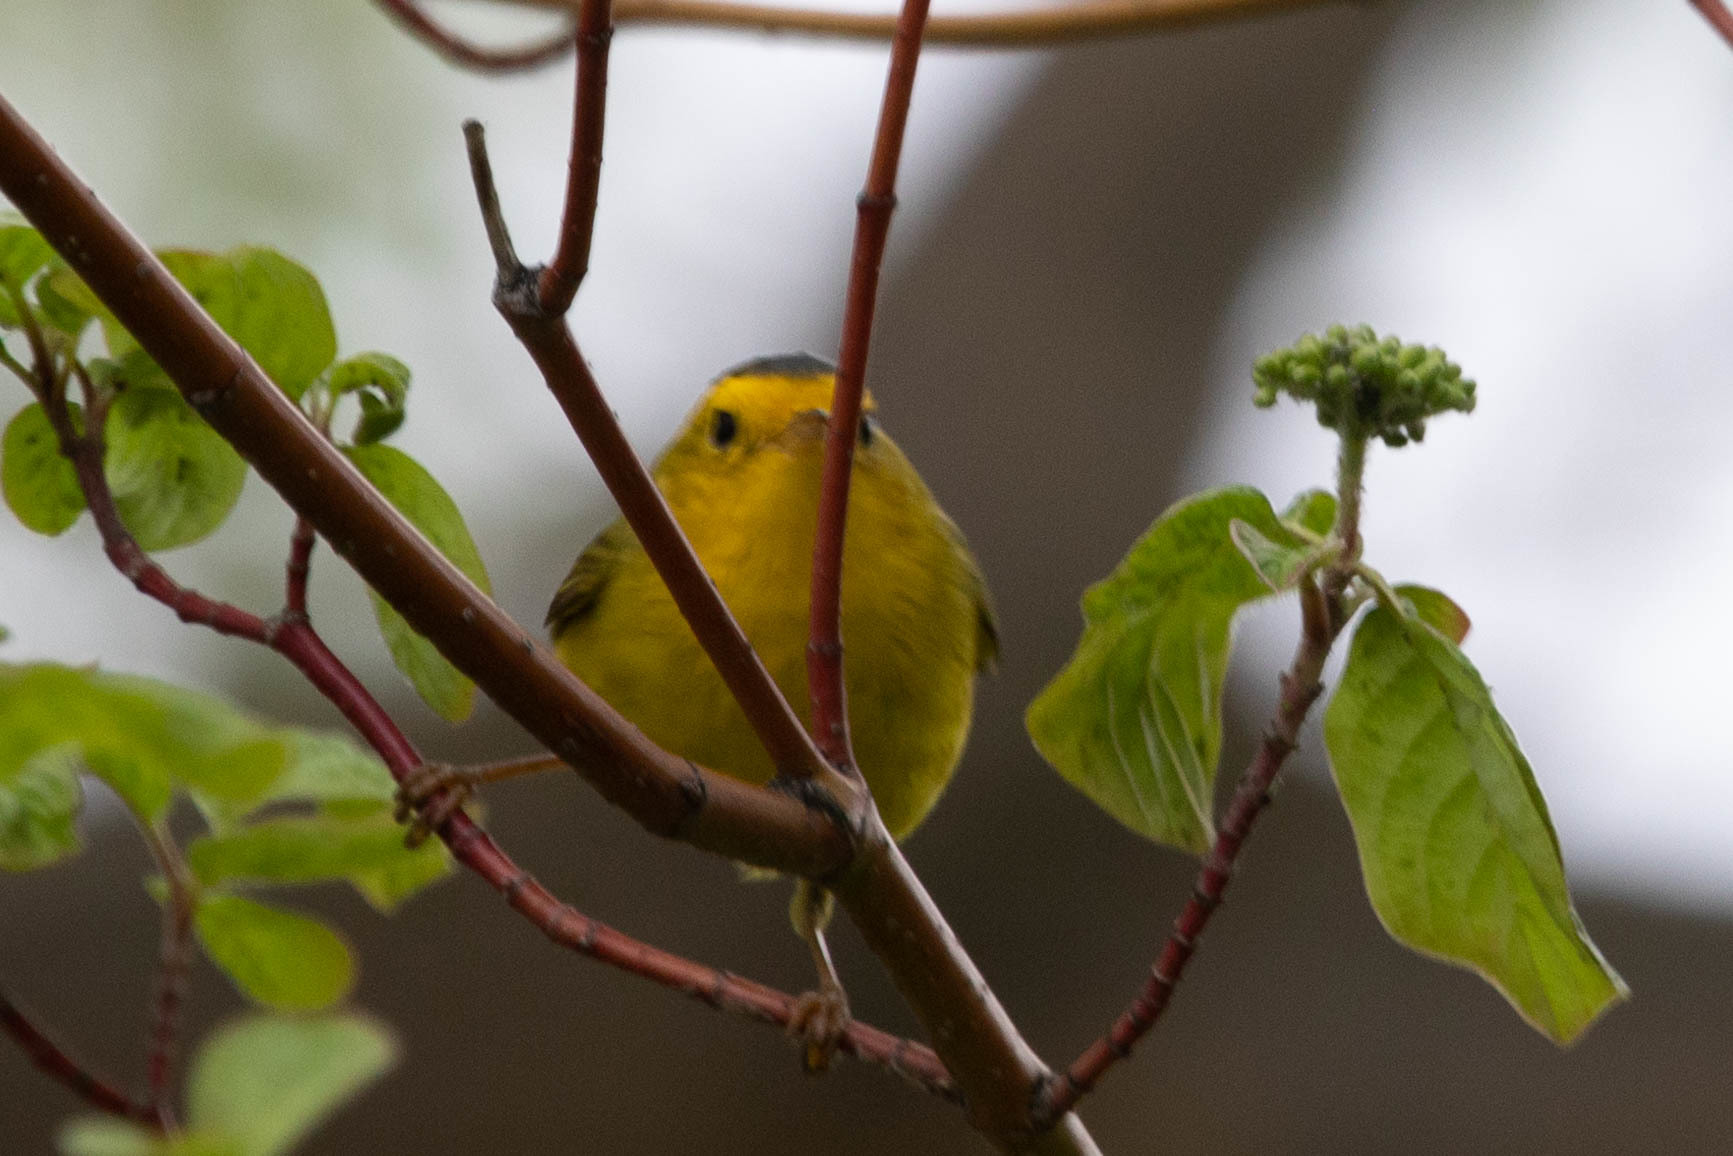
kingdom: Animalia
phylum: Chordata
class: Aves
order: Passeriformes
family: Parulidae
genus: Cardellina
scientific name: Cardellina pusilla
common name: Wilson's warbler
